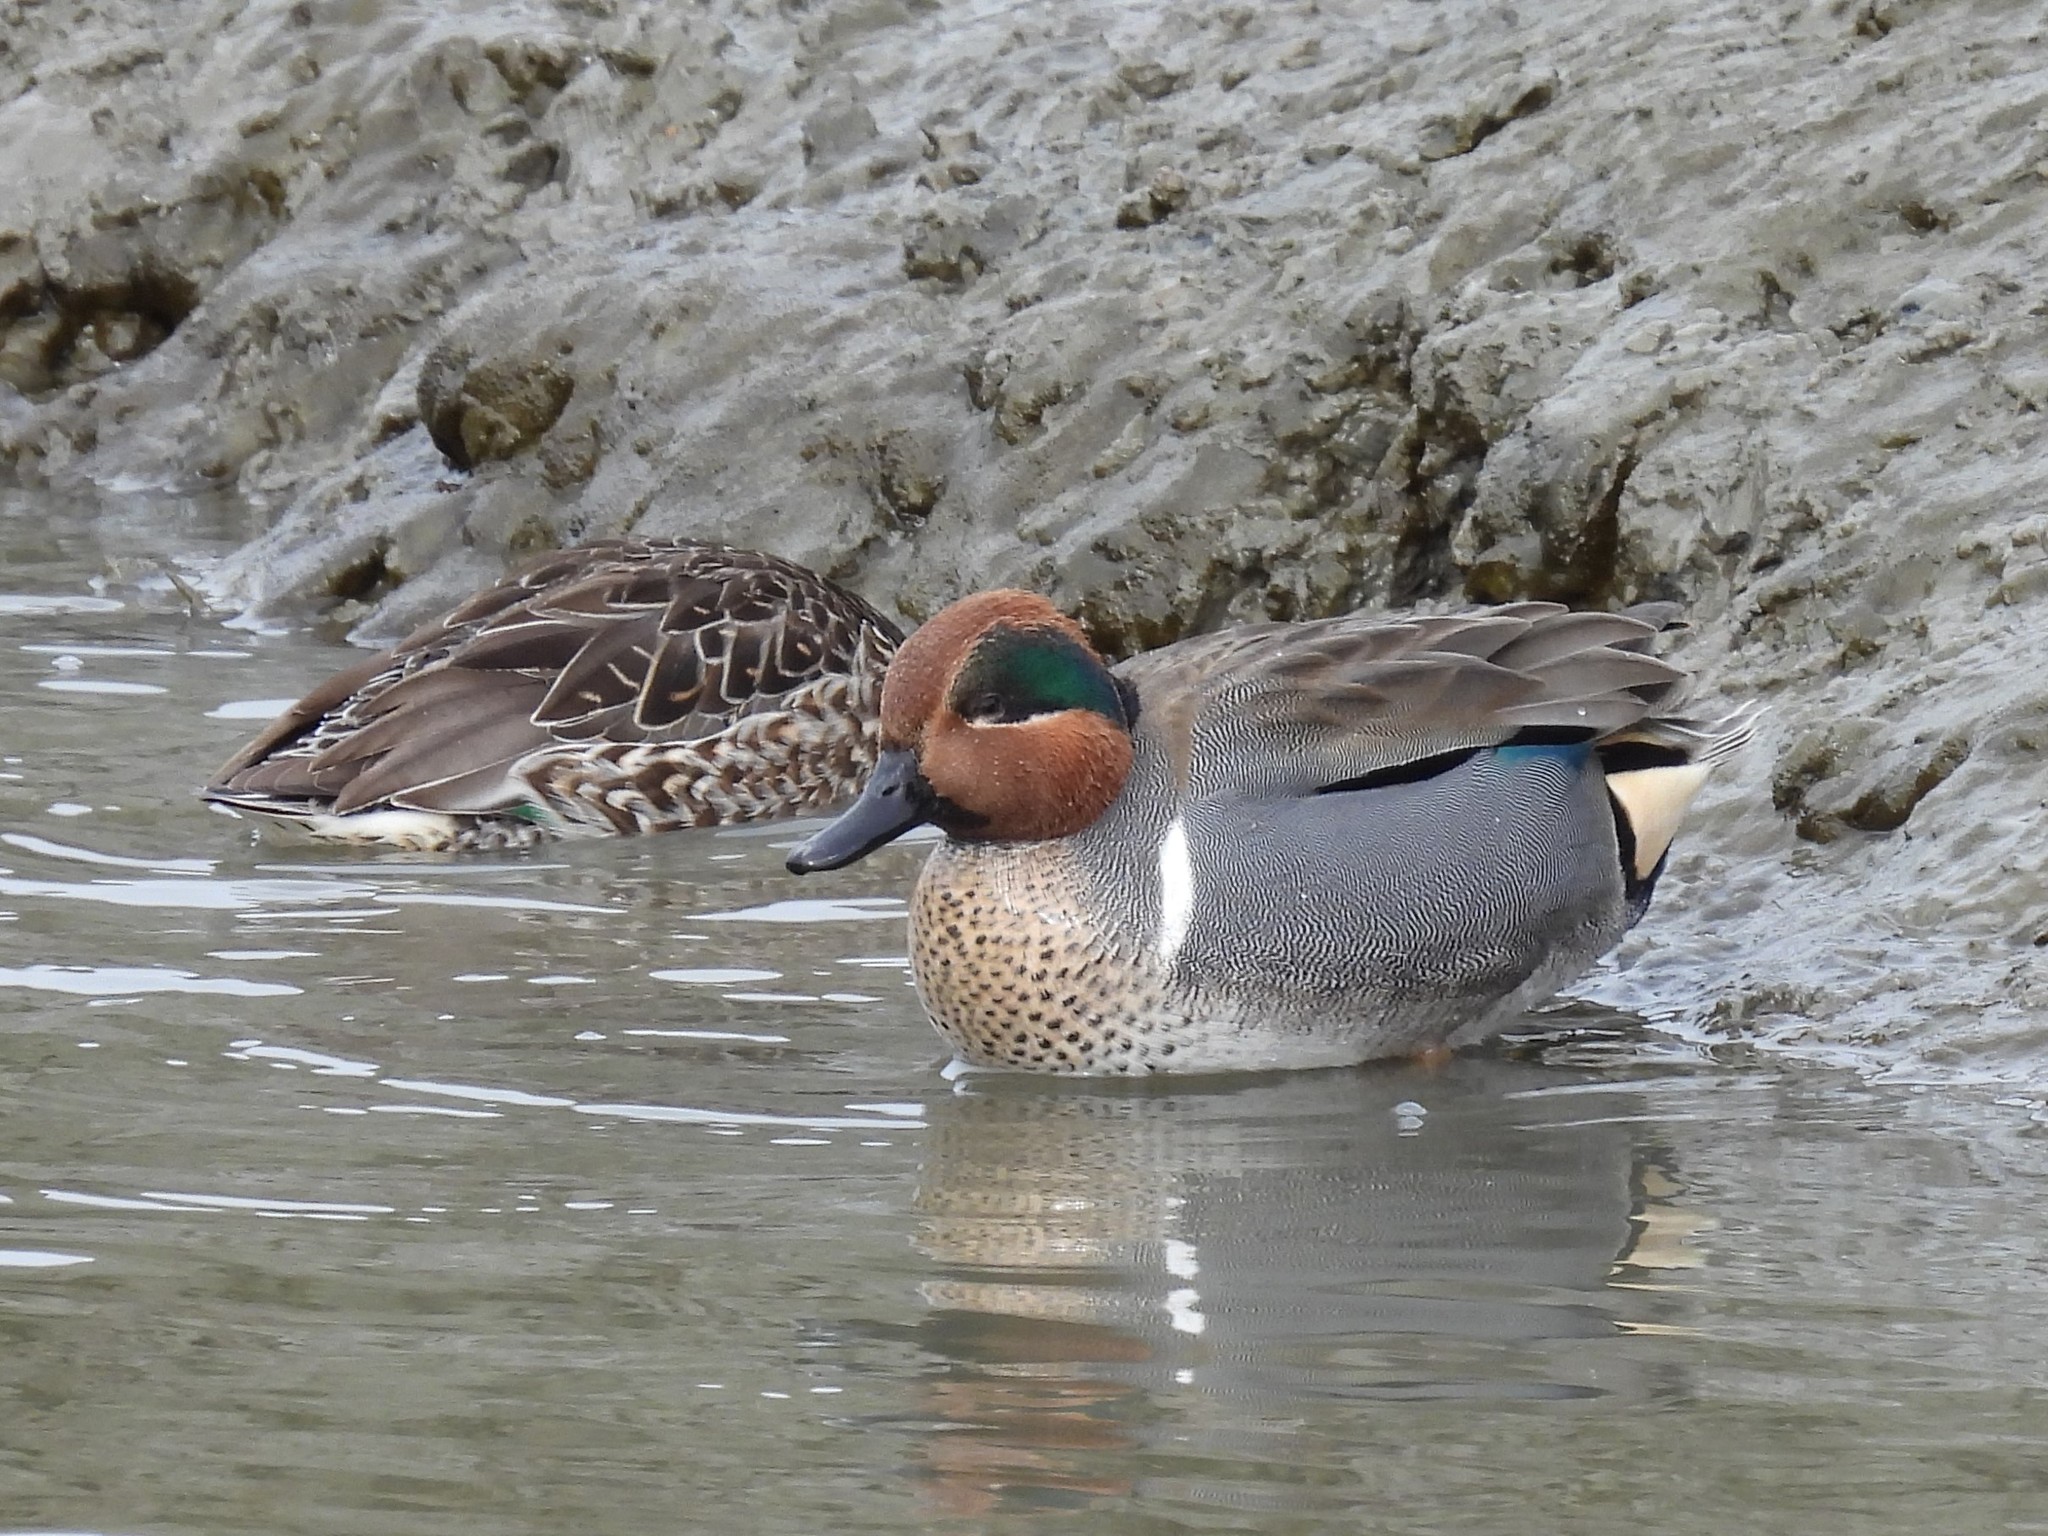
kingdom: Animalia
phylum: Chordata
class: Aves
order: Anseriformes
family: Anatidae
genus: Anas
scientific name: Anas crecca
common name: Eurasian teal
